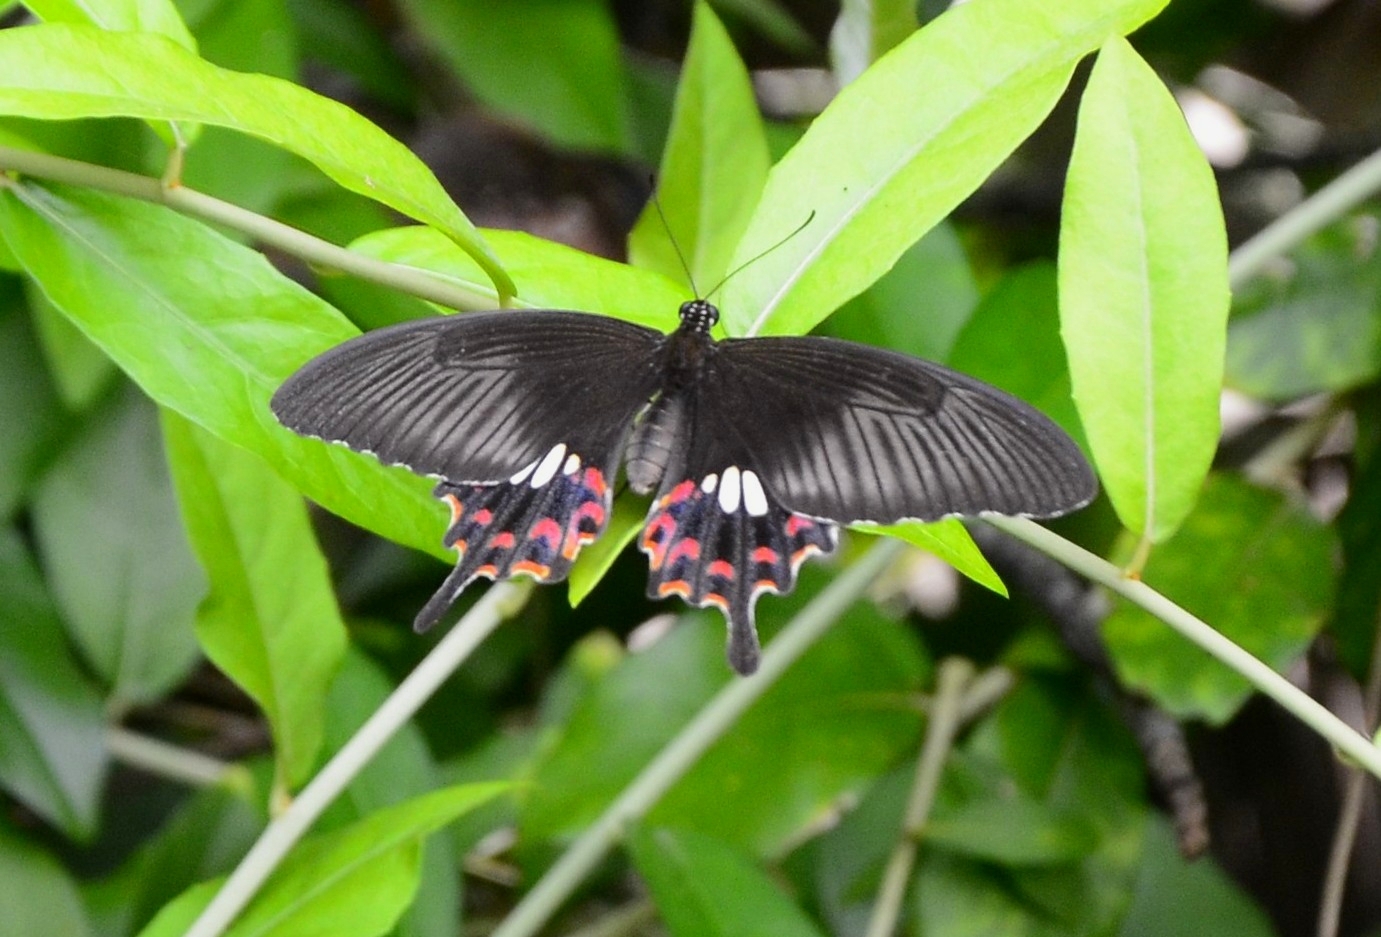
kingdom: Animalia
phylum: Arthropoda
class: Insecta
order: Lepidoptera
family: Papilionidae
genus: Papilio
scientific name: Papilio polytes
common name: Common mormon
